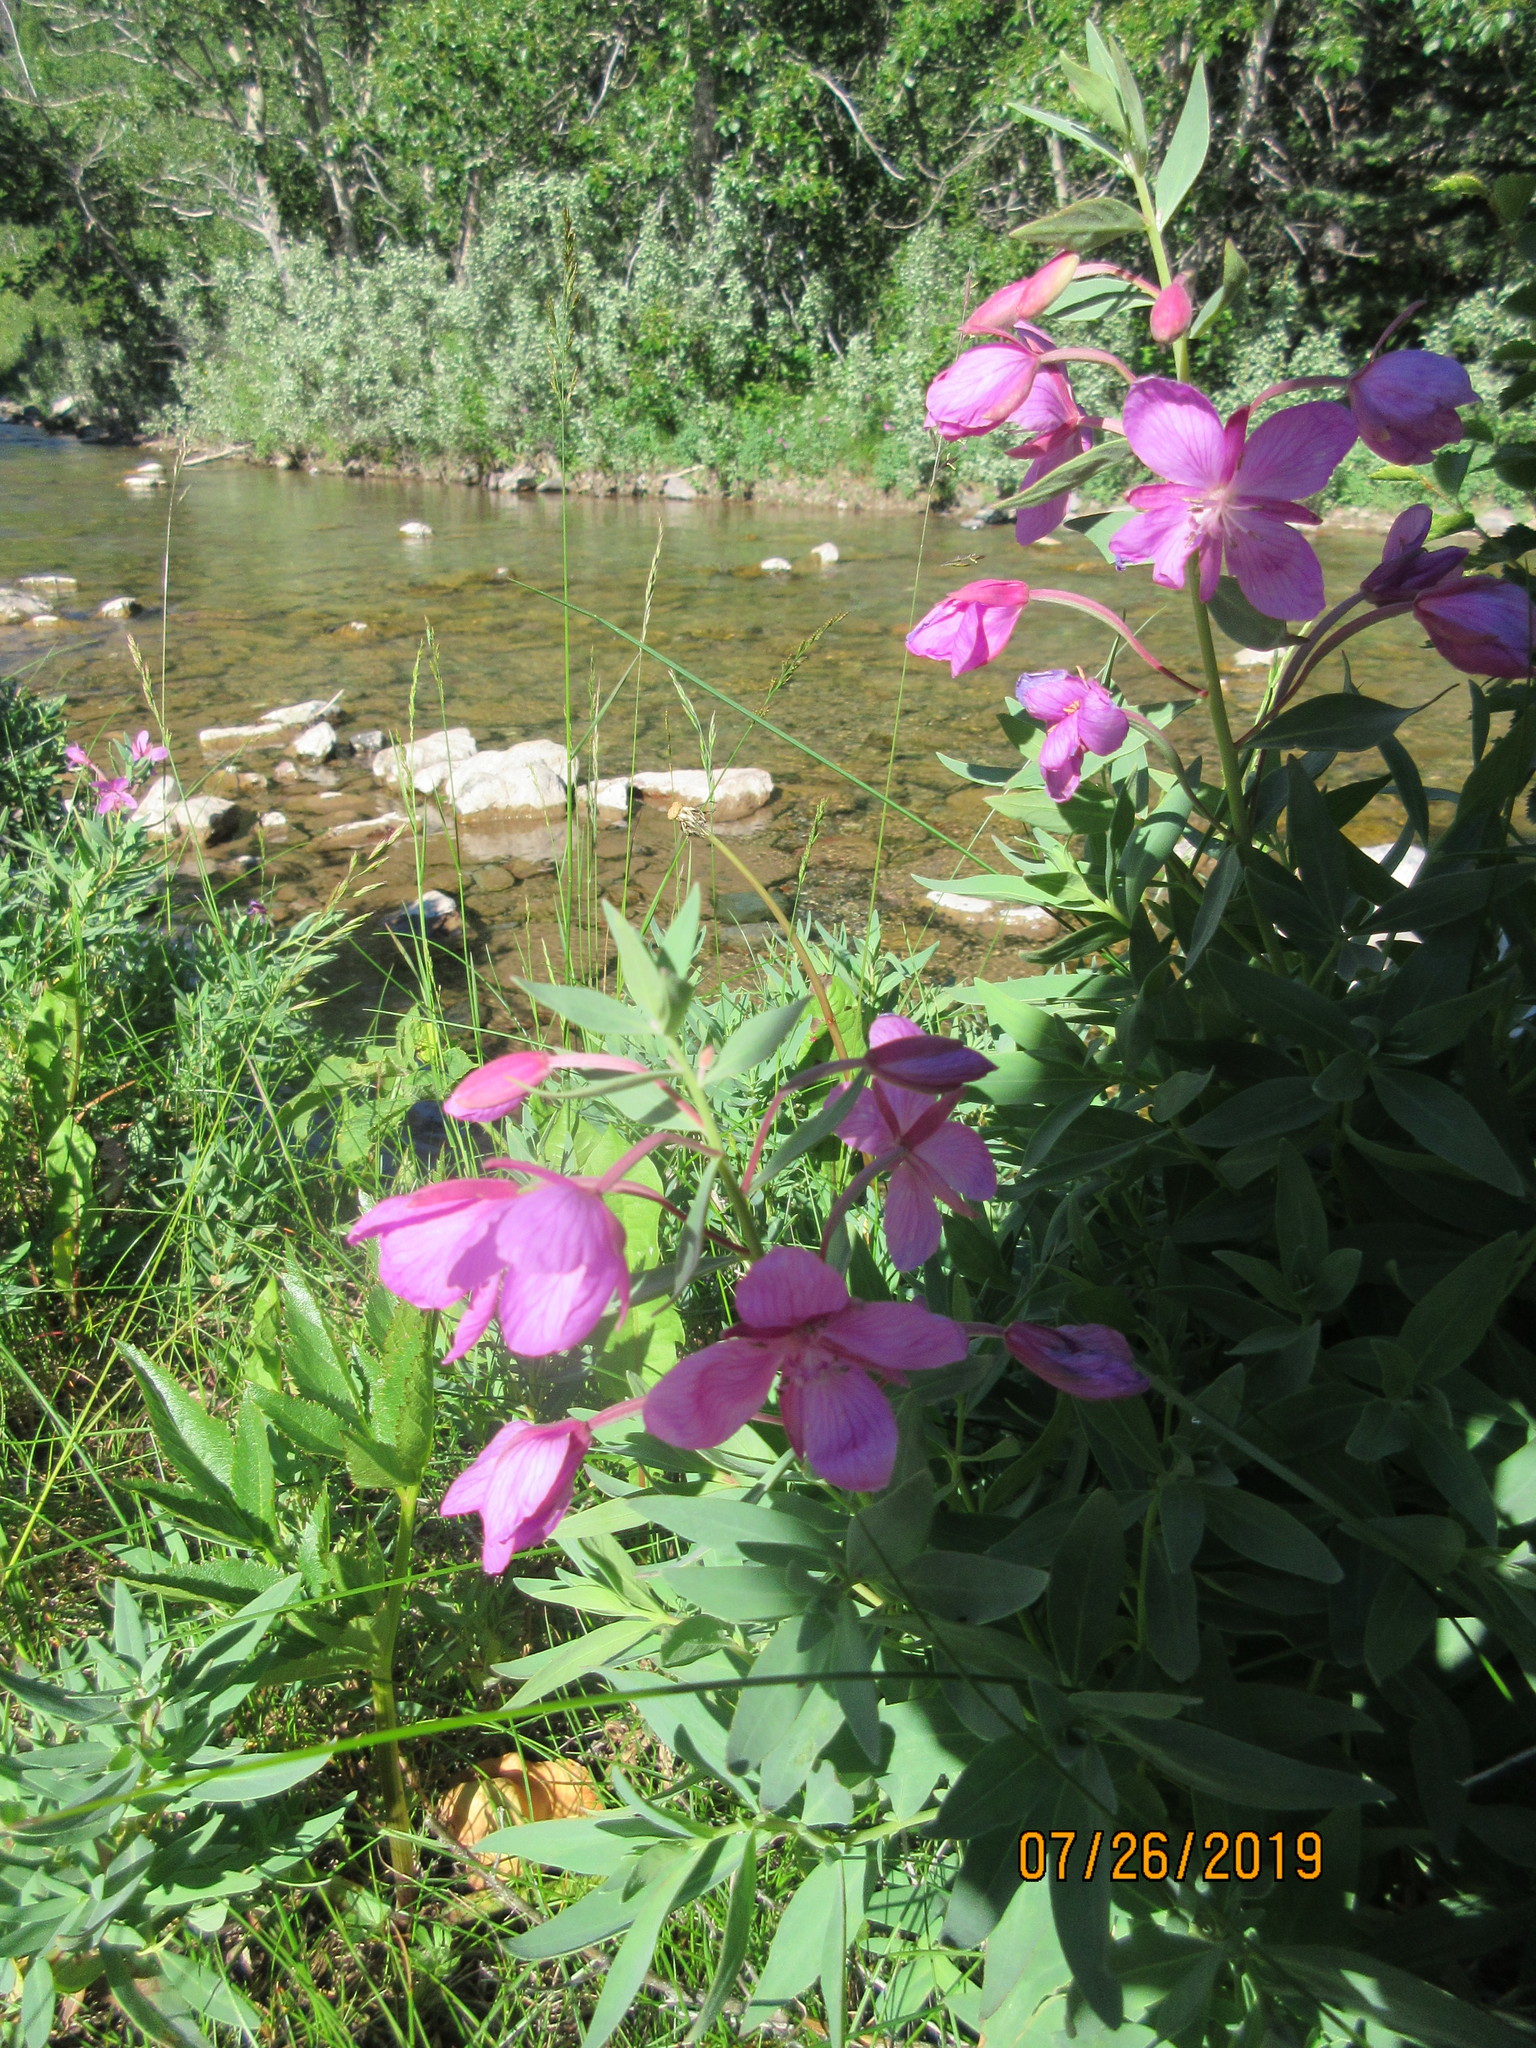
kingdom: Plantae
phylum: Tracheophyta
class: Magnoliopsida
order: Myrtales
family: Onagraceae
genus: Chamaenerion
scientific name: Chamaenerion latifolium
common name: Dwarf fireweed
